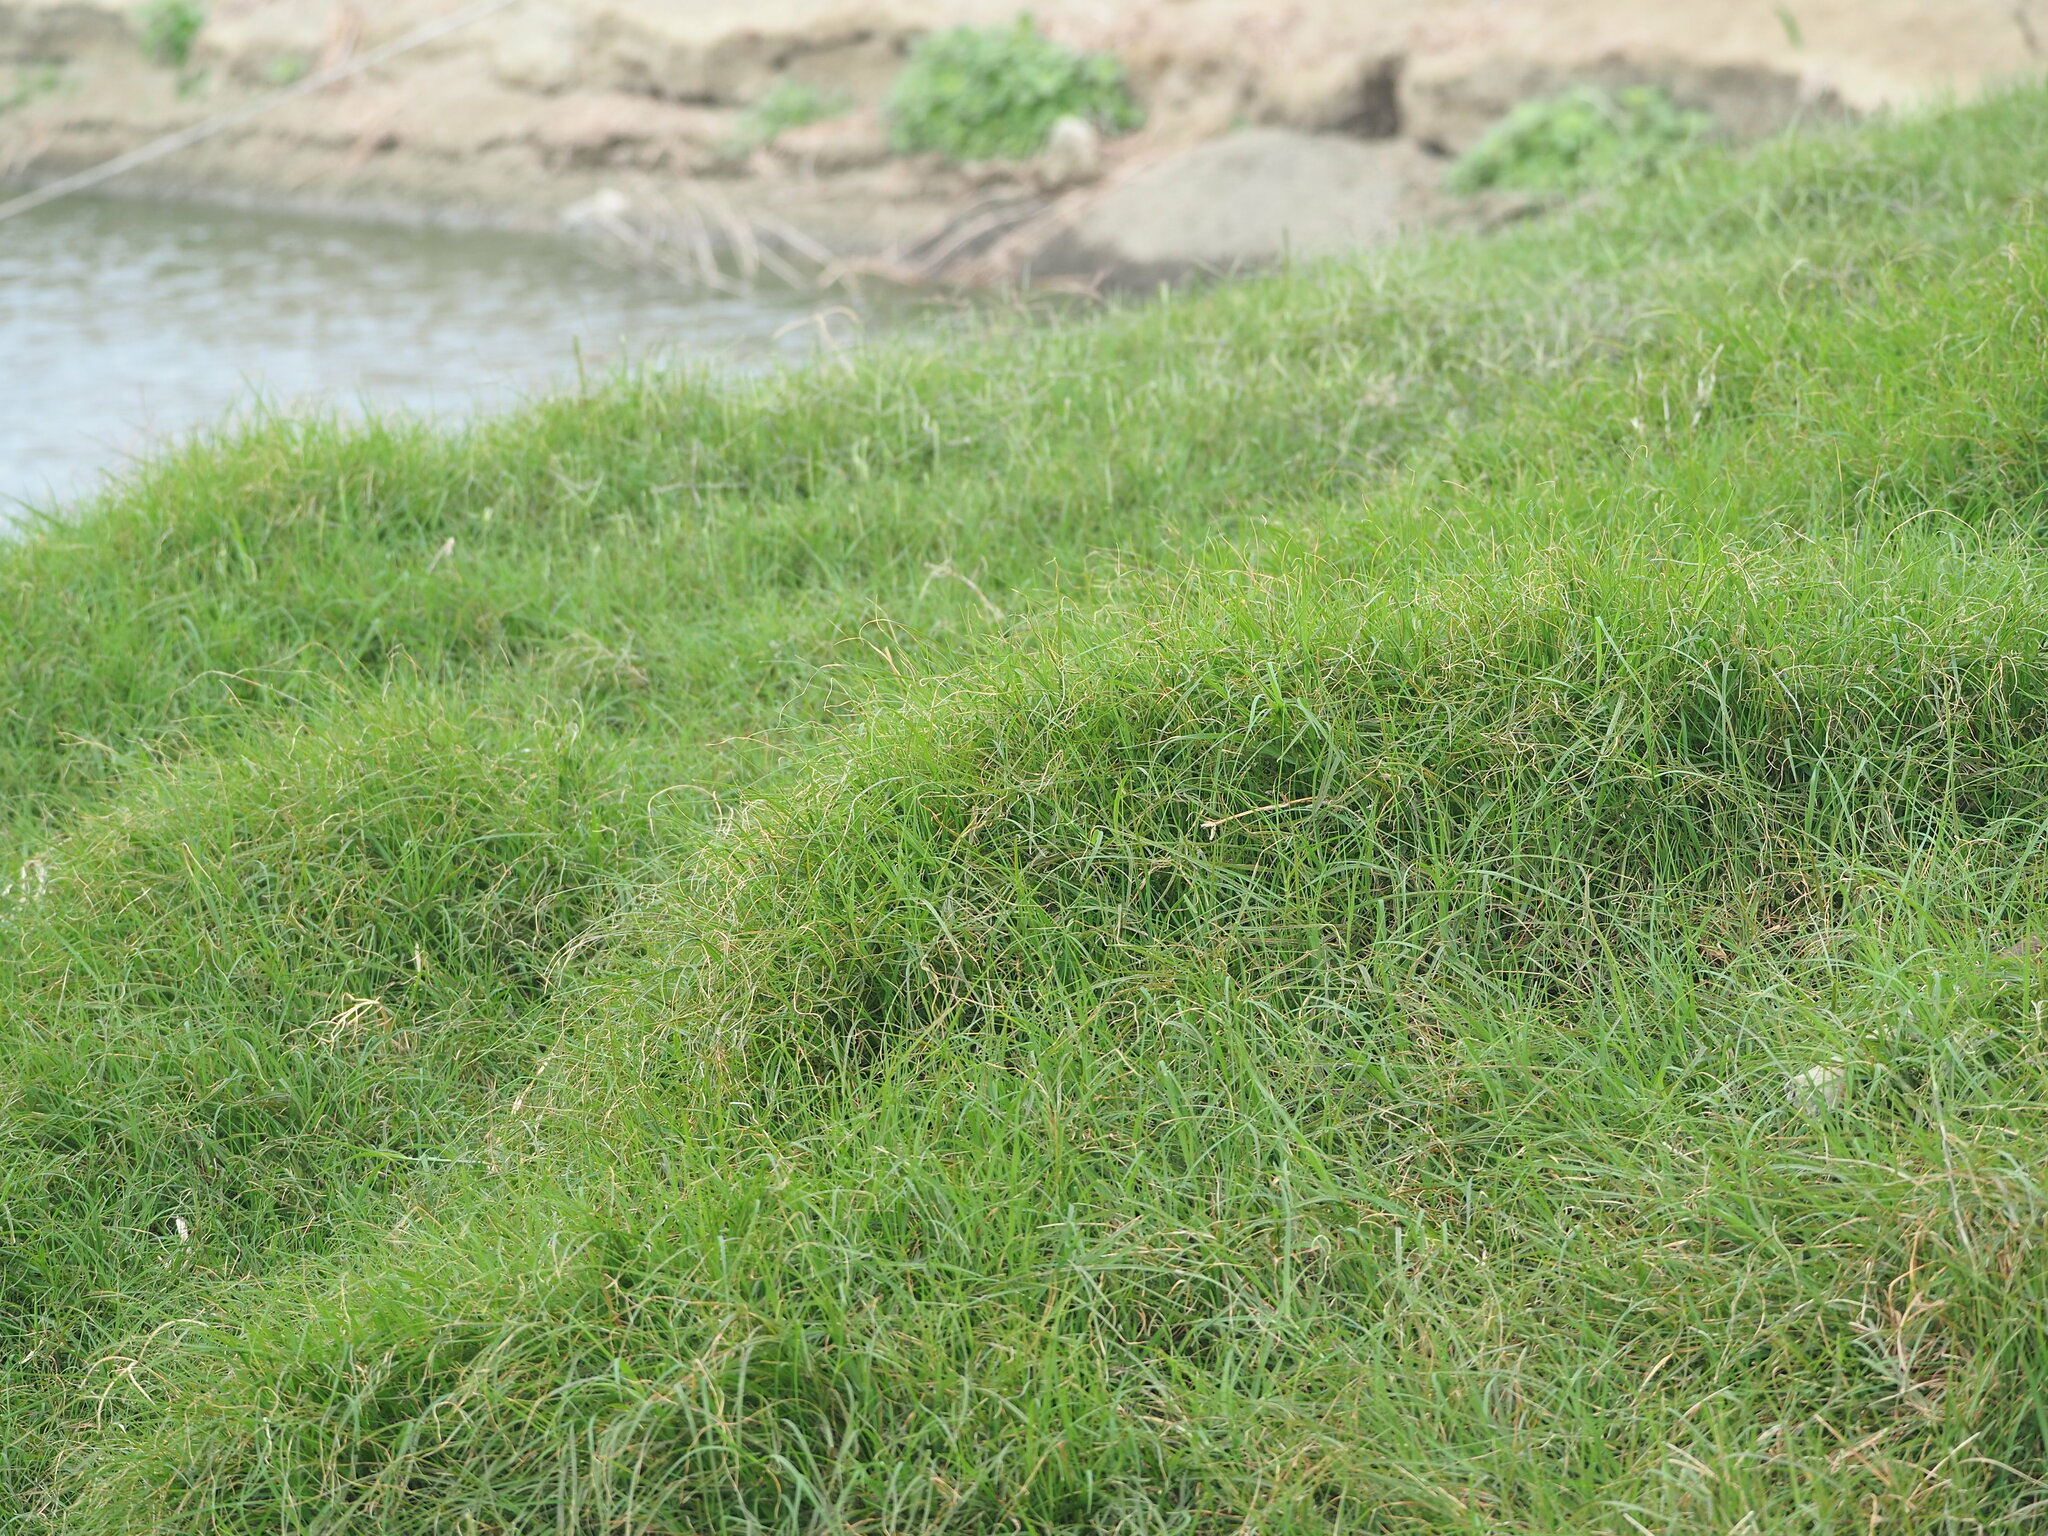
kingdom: Plantae
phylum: Tracheophyta
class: Liliopsida
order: Poales
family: Poaceae
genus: Cynodon
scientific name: Cynodon nlemfuensis
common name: African bermudagrass
